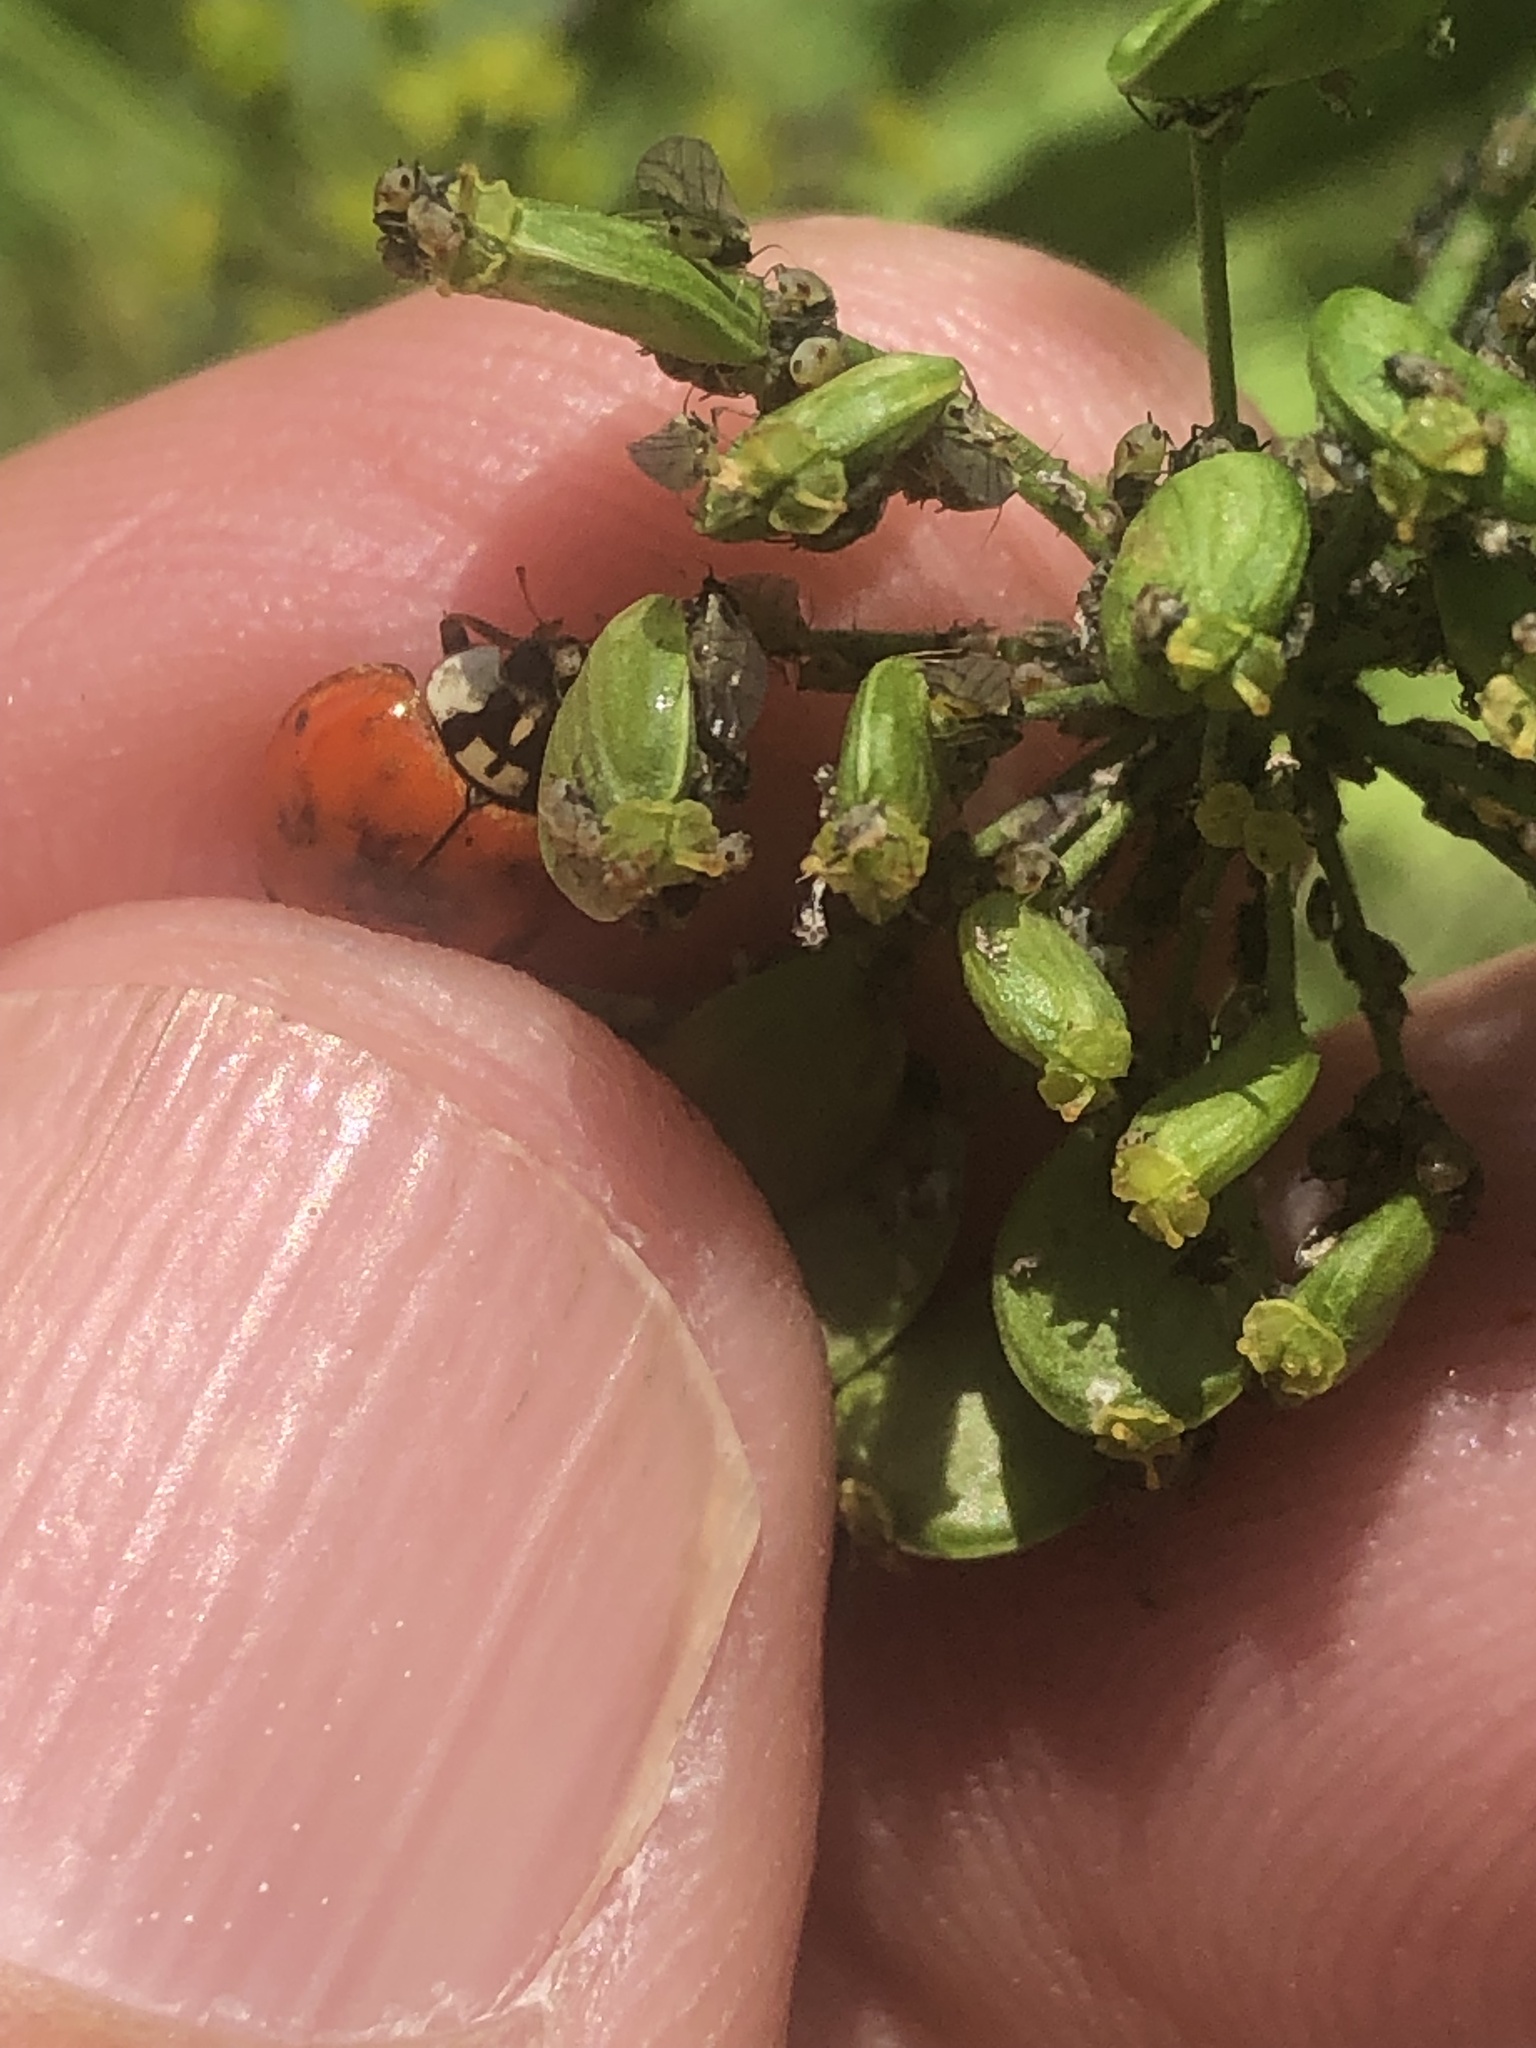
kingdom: Animalia
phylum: Arthropoda
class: Insecta
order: Coleoptera
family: Coccinellidae
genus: Harmonia
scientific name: Harmonia axyridis
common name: Harlequin ladybird
